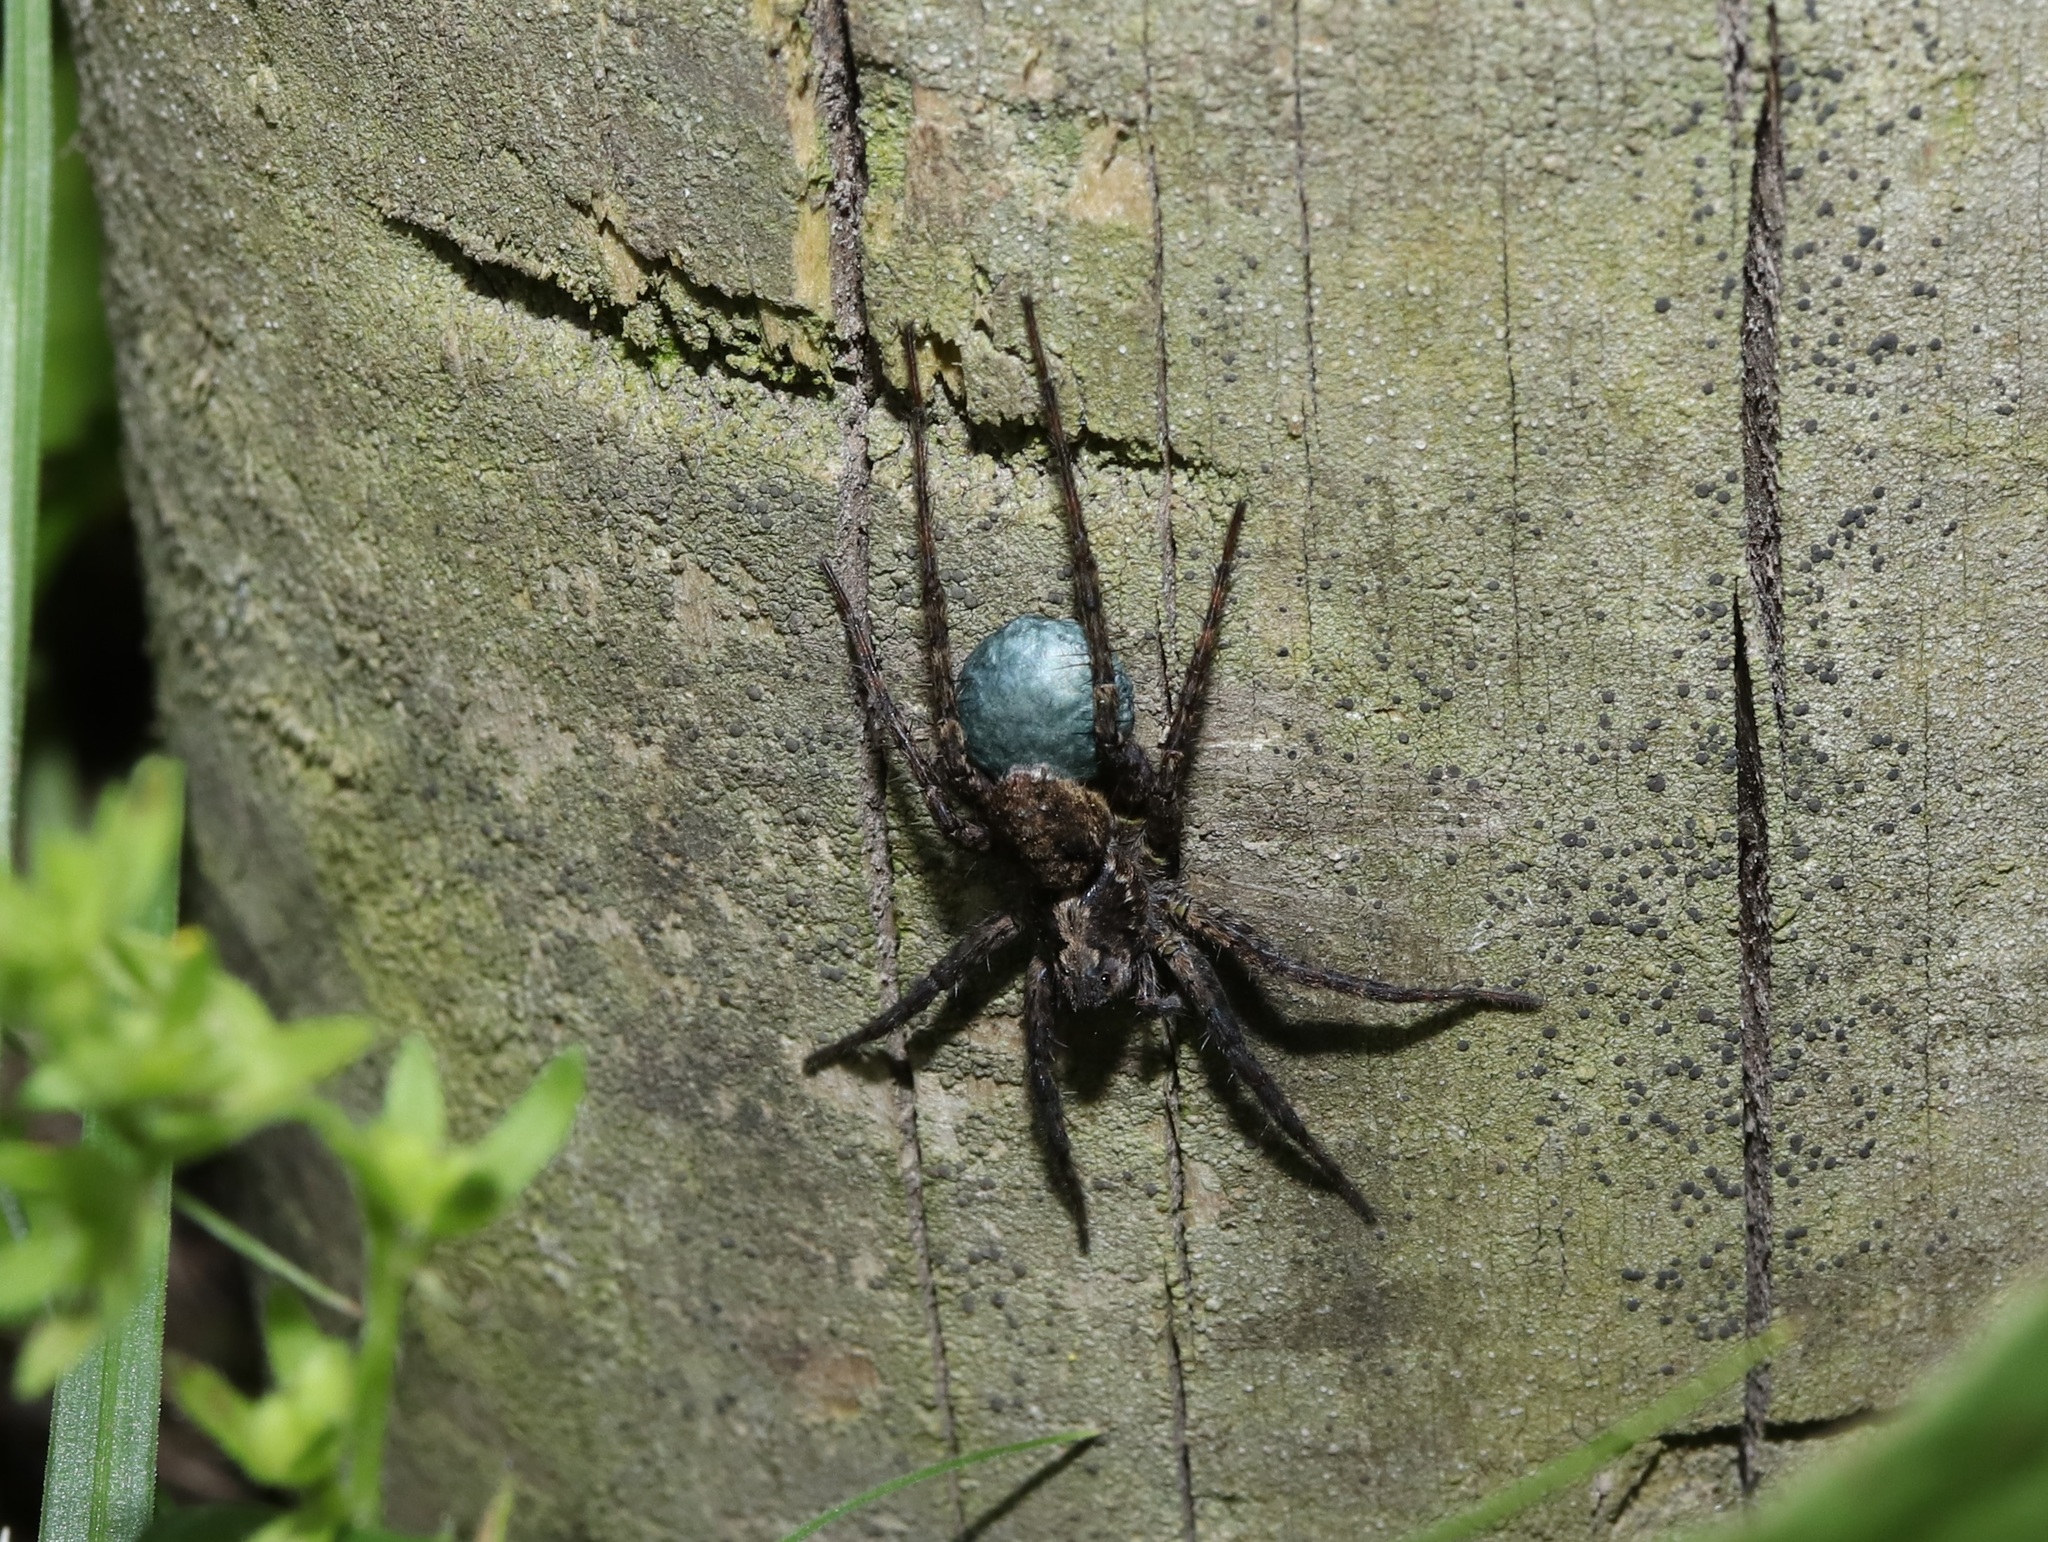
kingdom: Animalia
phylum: Arthropoda
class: Arachnida
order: Araneae
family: Lycosidae
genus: Pardosa
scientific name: Pardosa astrigera
